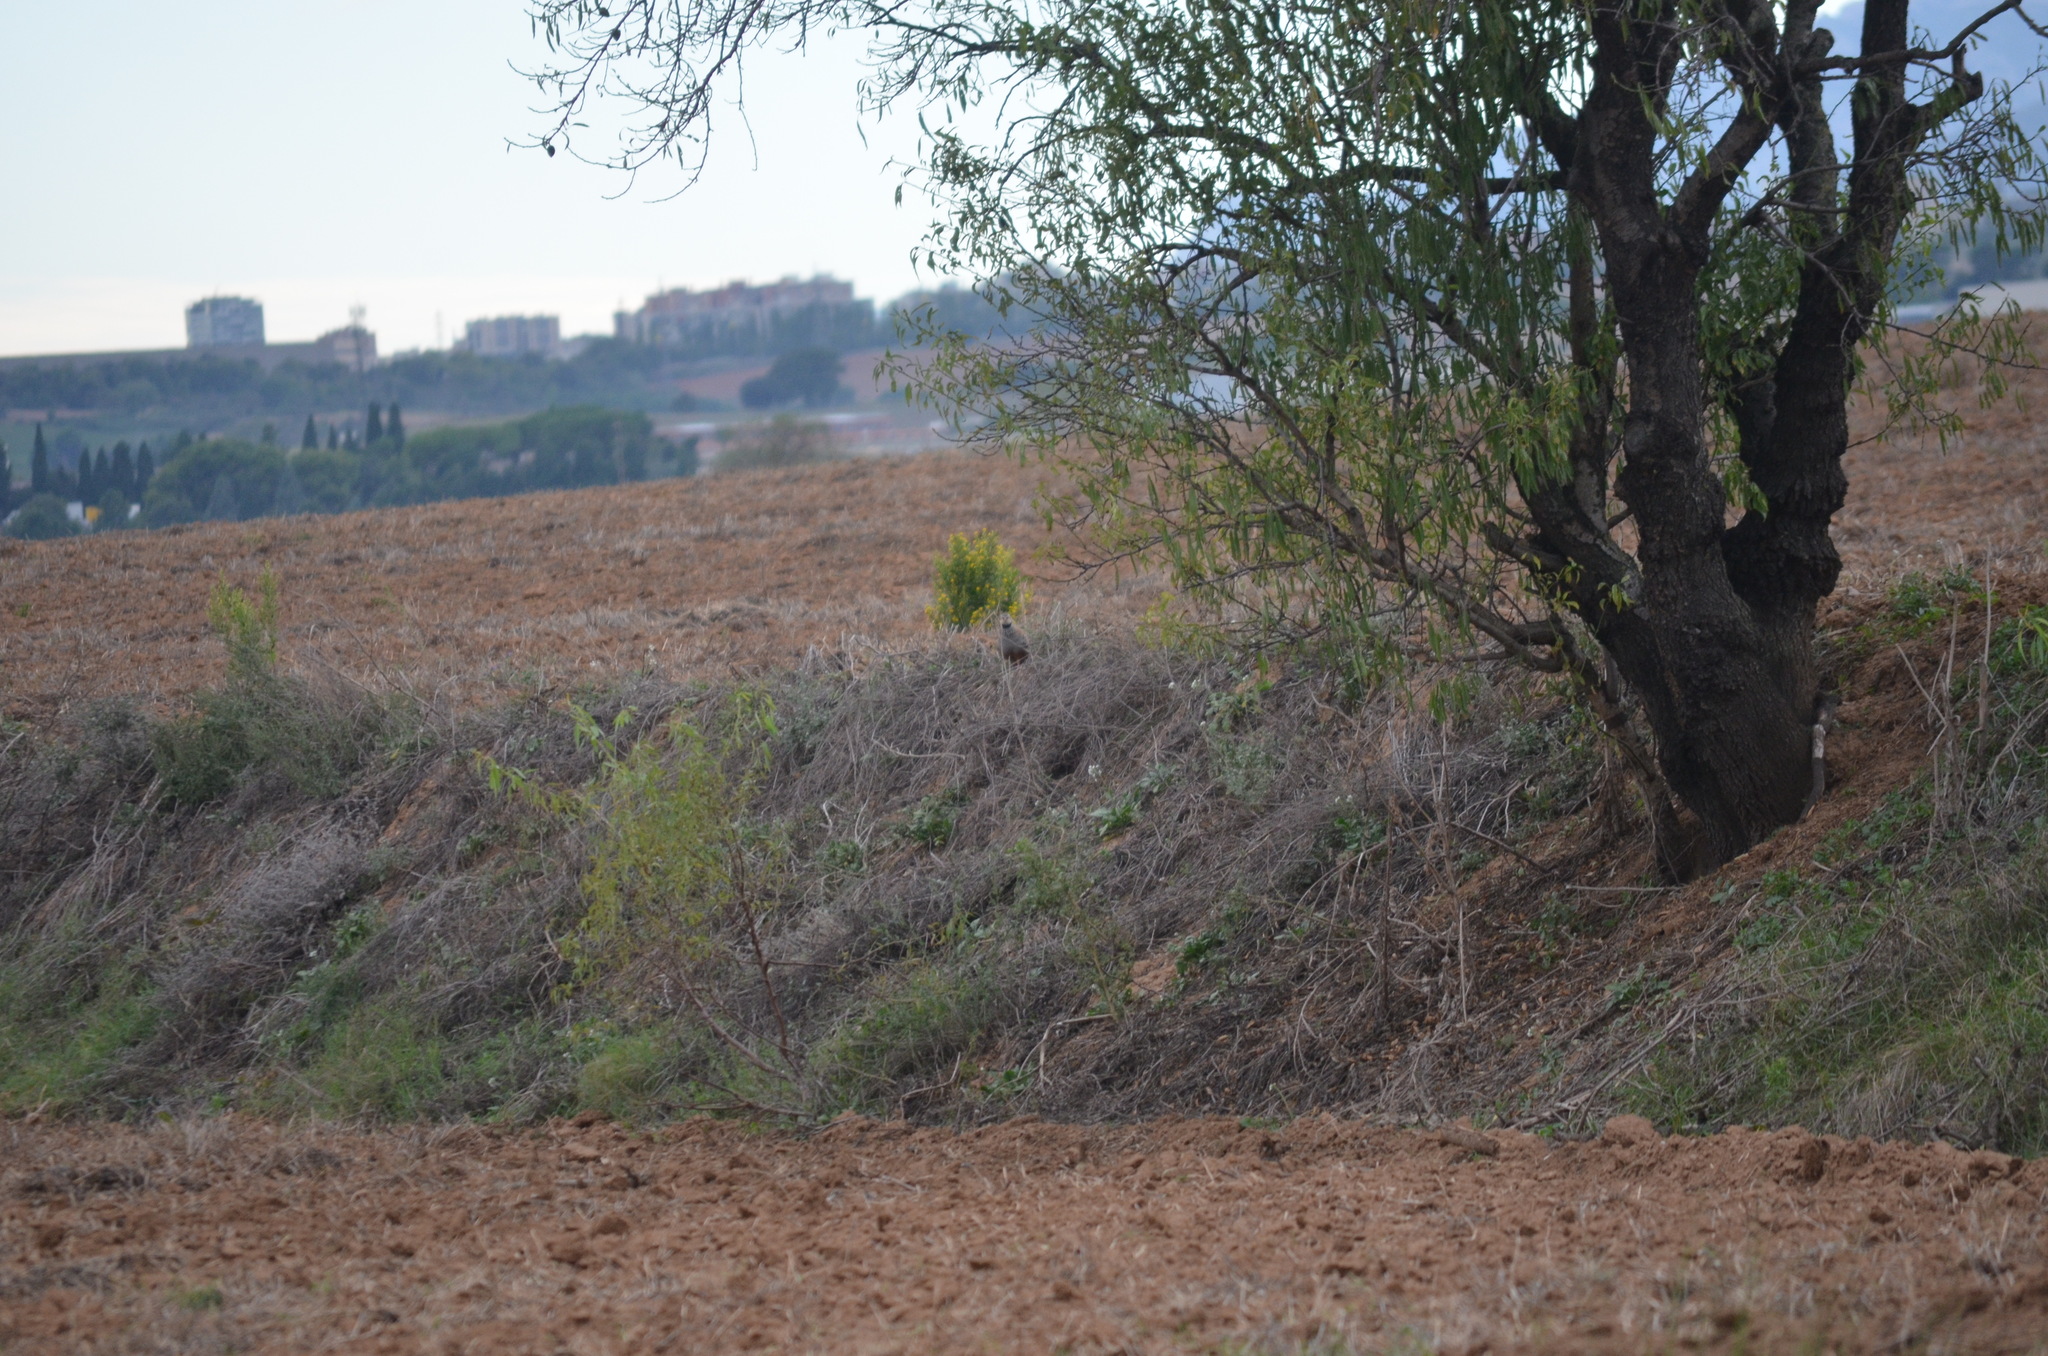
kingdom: Animalia
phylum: Chordata
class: Aves
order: Galliformes
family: Phasianidae
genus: Alectoris
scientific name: Alectoris rufa
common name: Red-legged partridge
